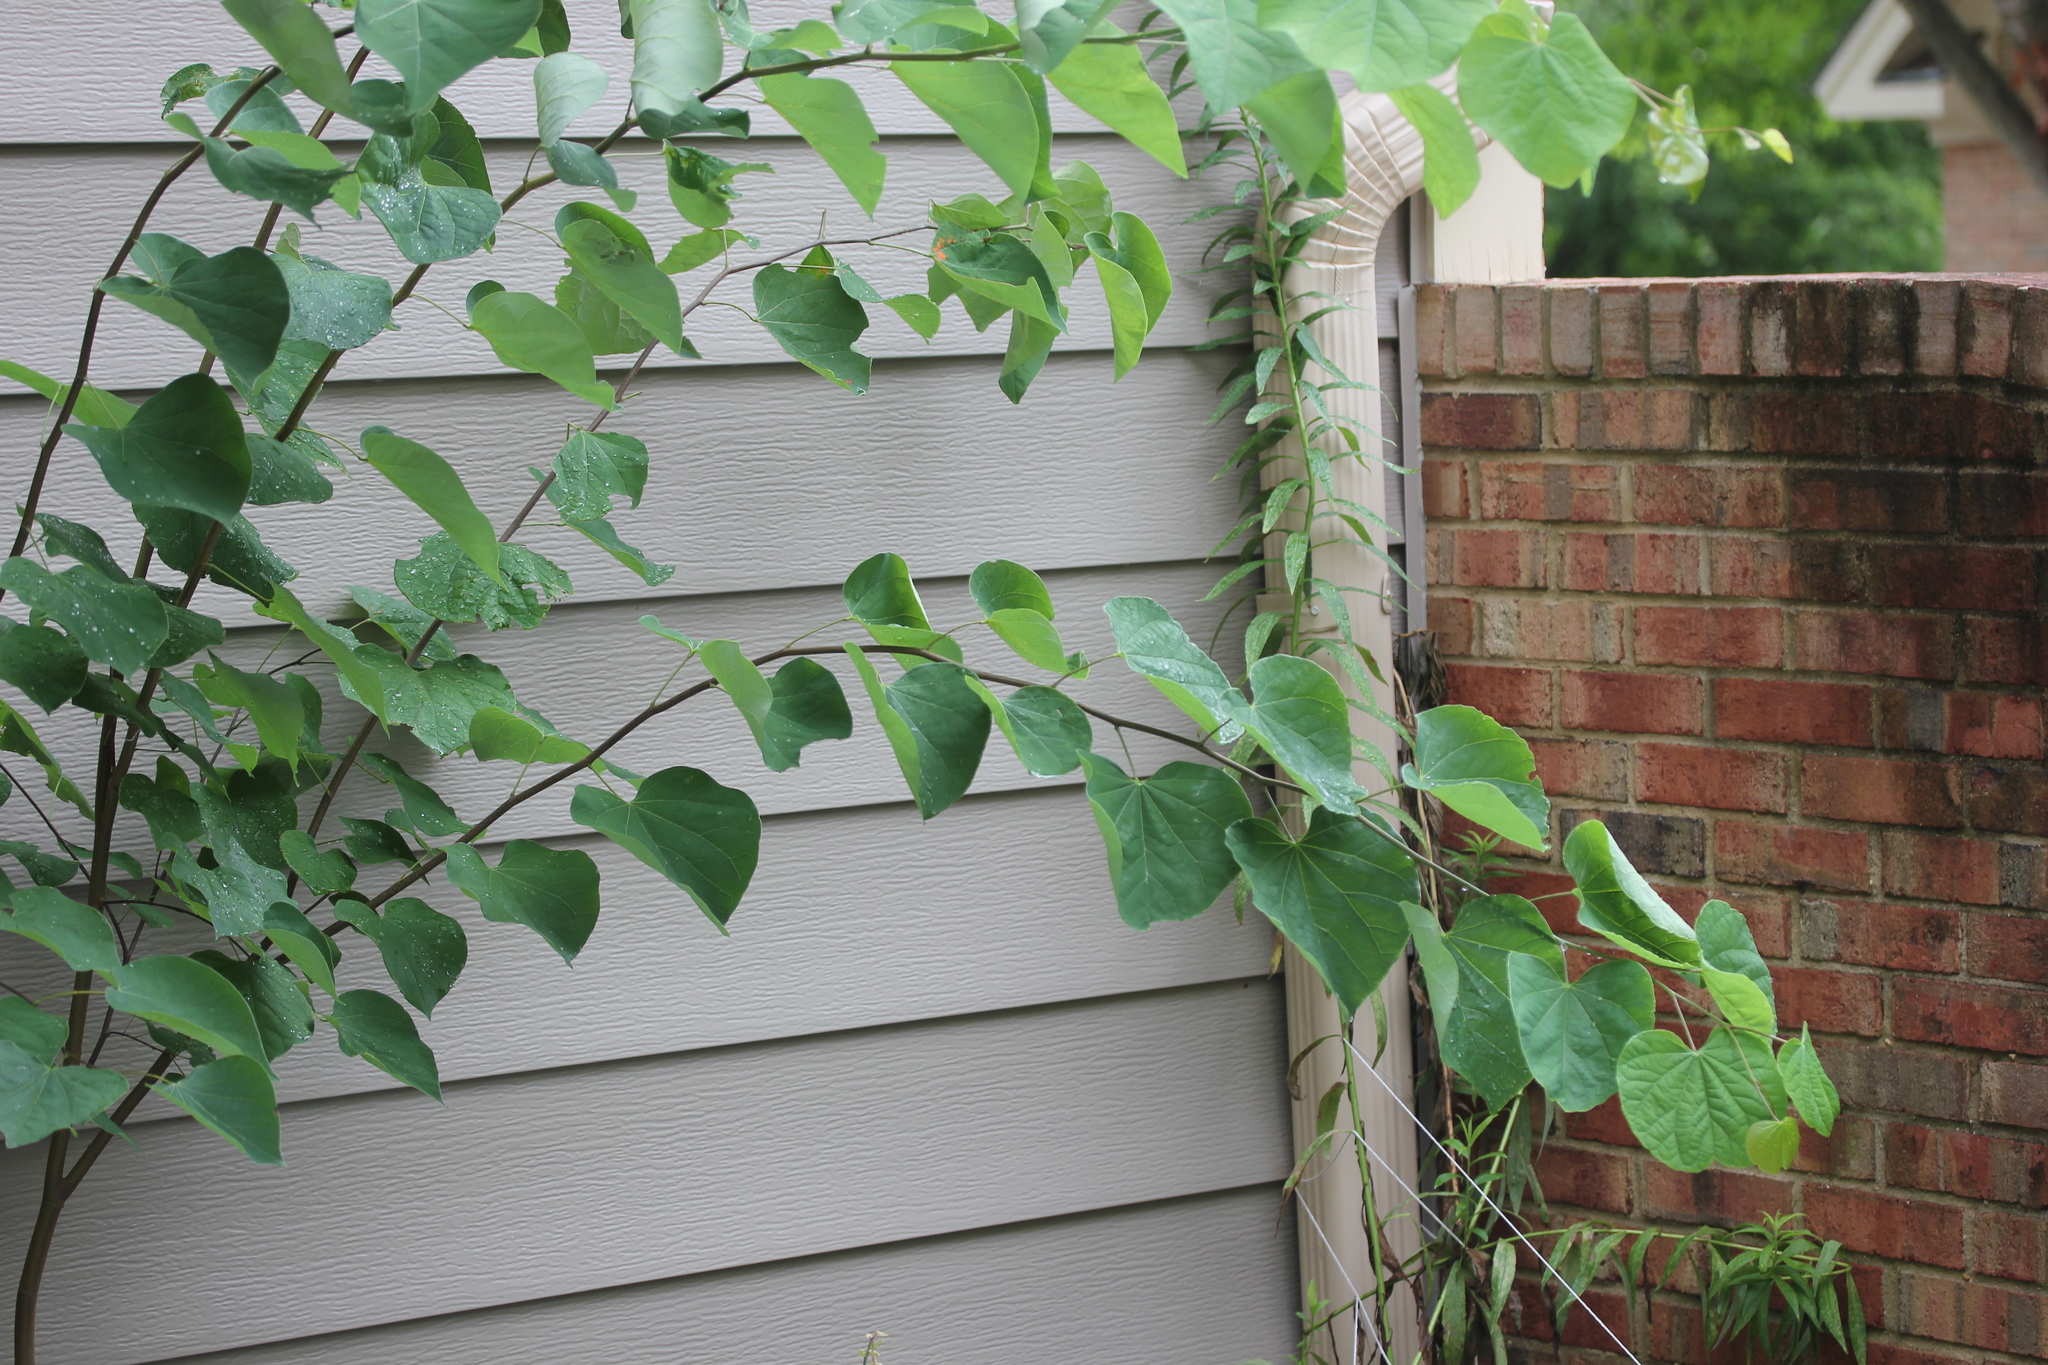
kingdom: Plantae
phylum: Tracheophyta
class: Magnoliopsida
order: Fabales
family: Fabaceae
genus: Cercis
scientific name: Cercis canadensis
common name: Eastern redbud
